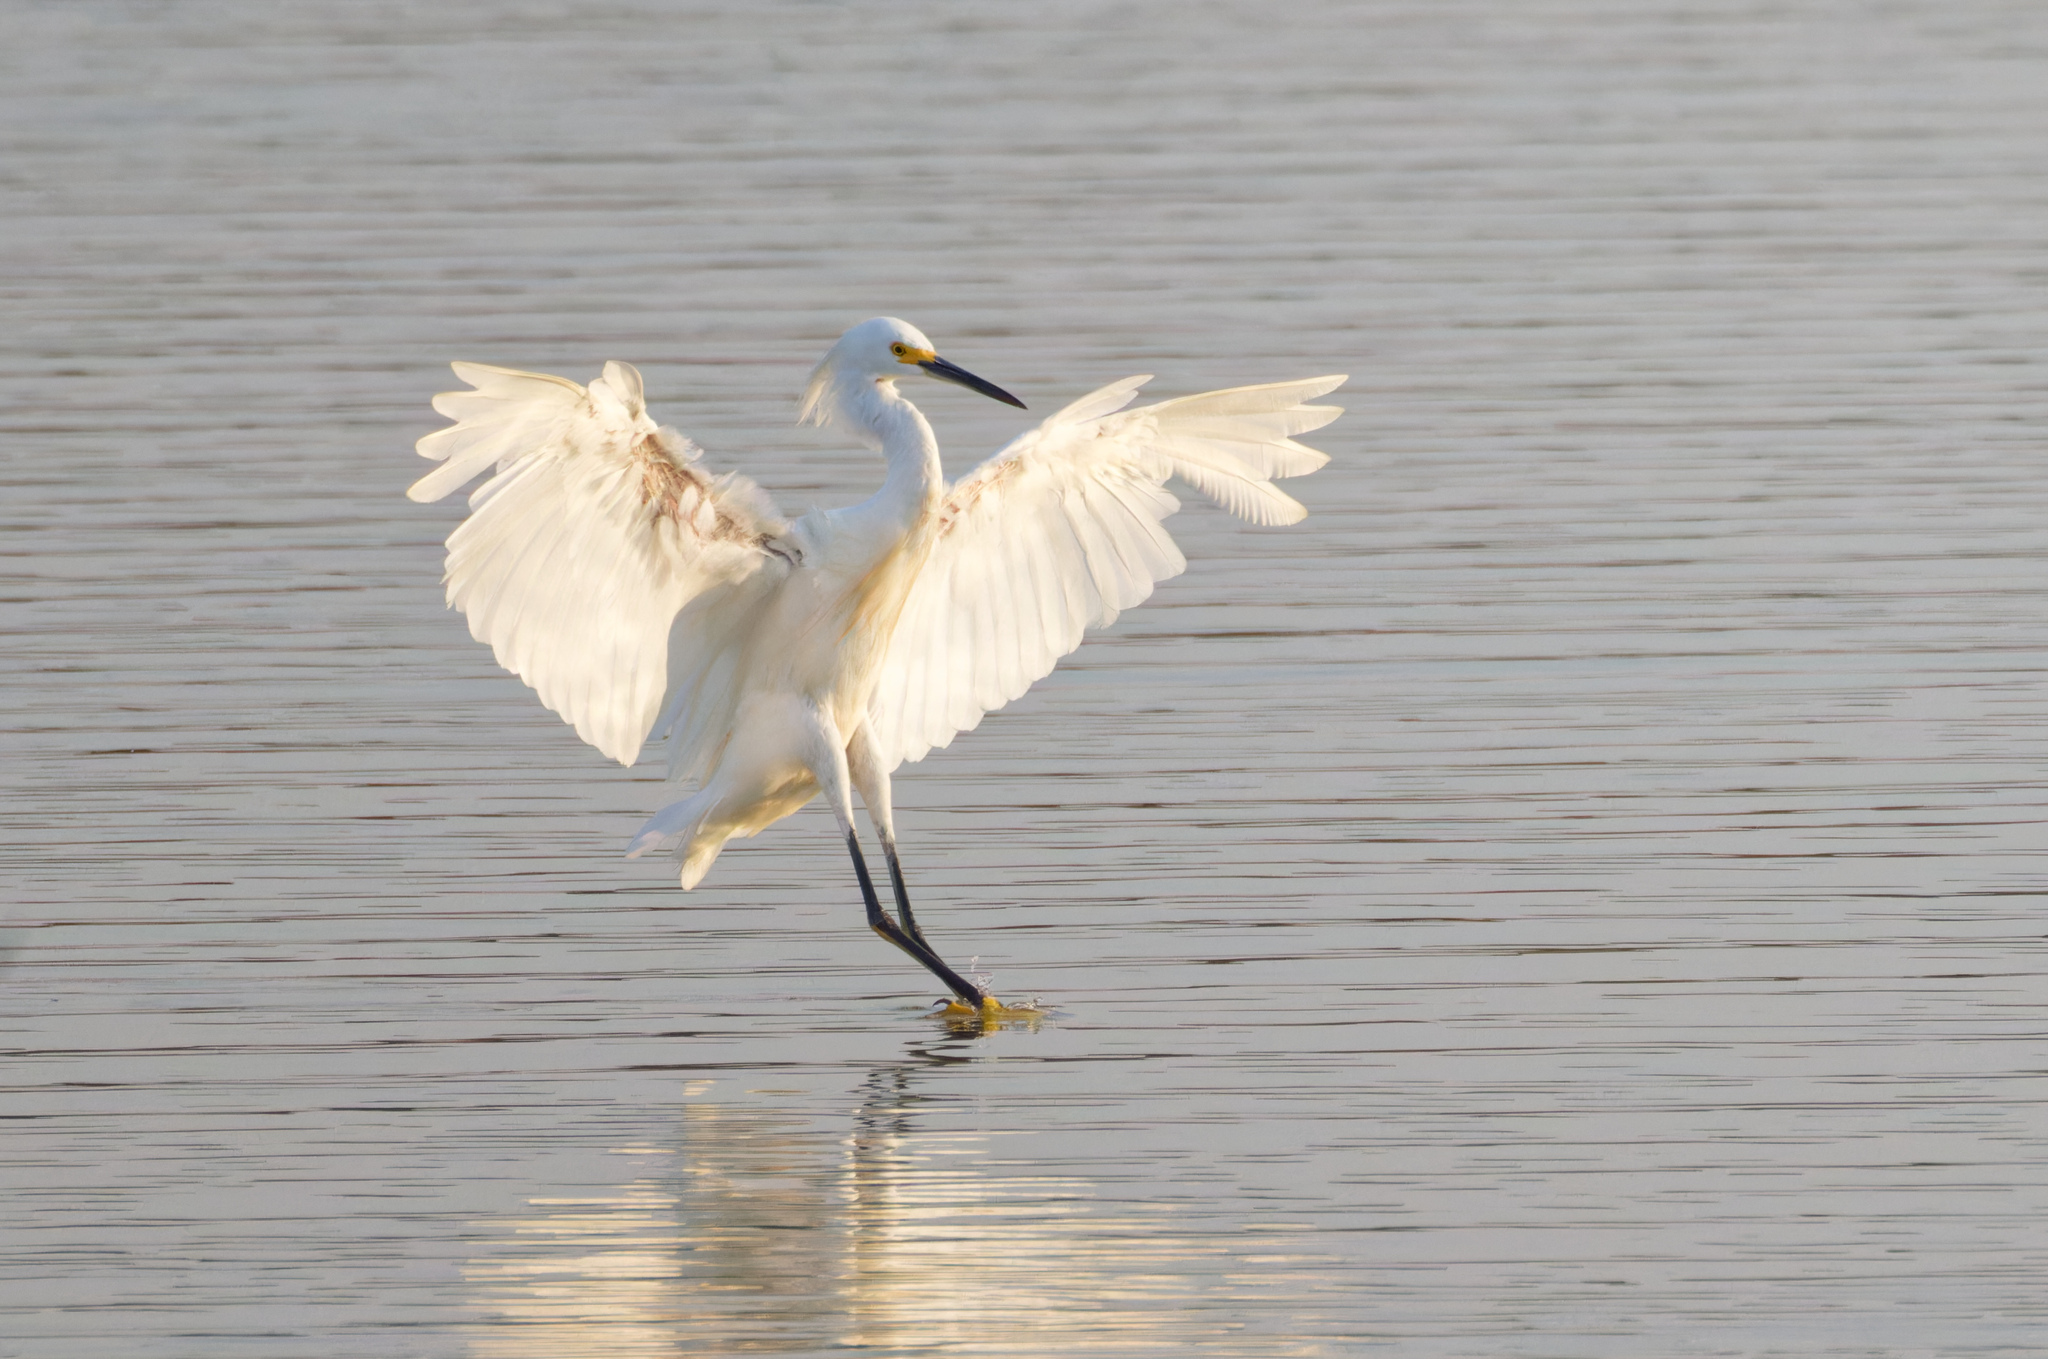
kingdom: Animalia
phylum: Chordata
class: Aves
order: Pelecaniformes
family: Ardeidae
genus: Egretta
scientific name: Egretta thula
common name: Snowy egret
